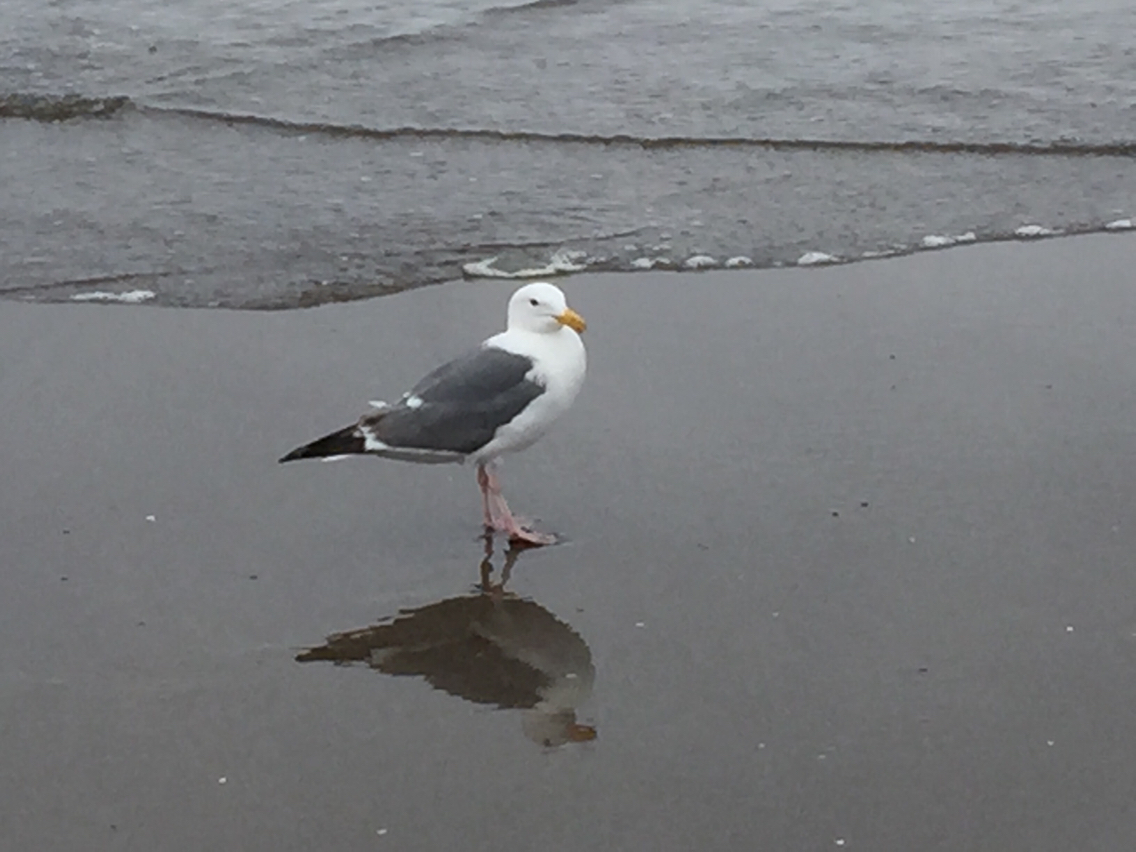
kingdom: Animalia
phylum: Chordata
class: Aves
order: Charadriiformes
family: Laridae
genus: Larus
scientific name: Larus occidentalis
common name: Western gull
